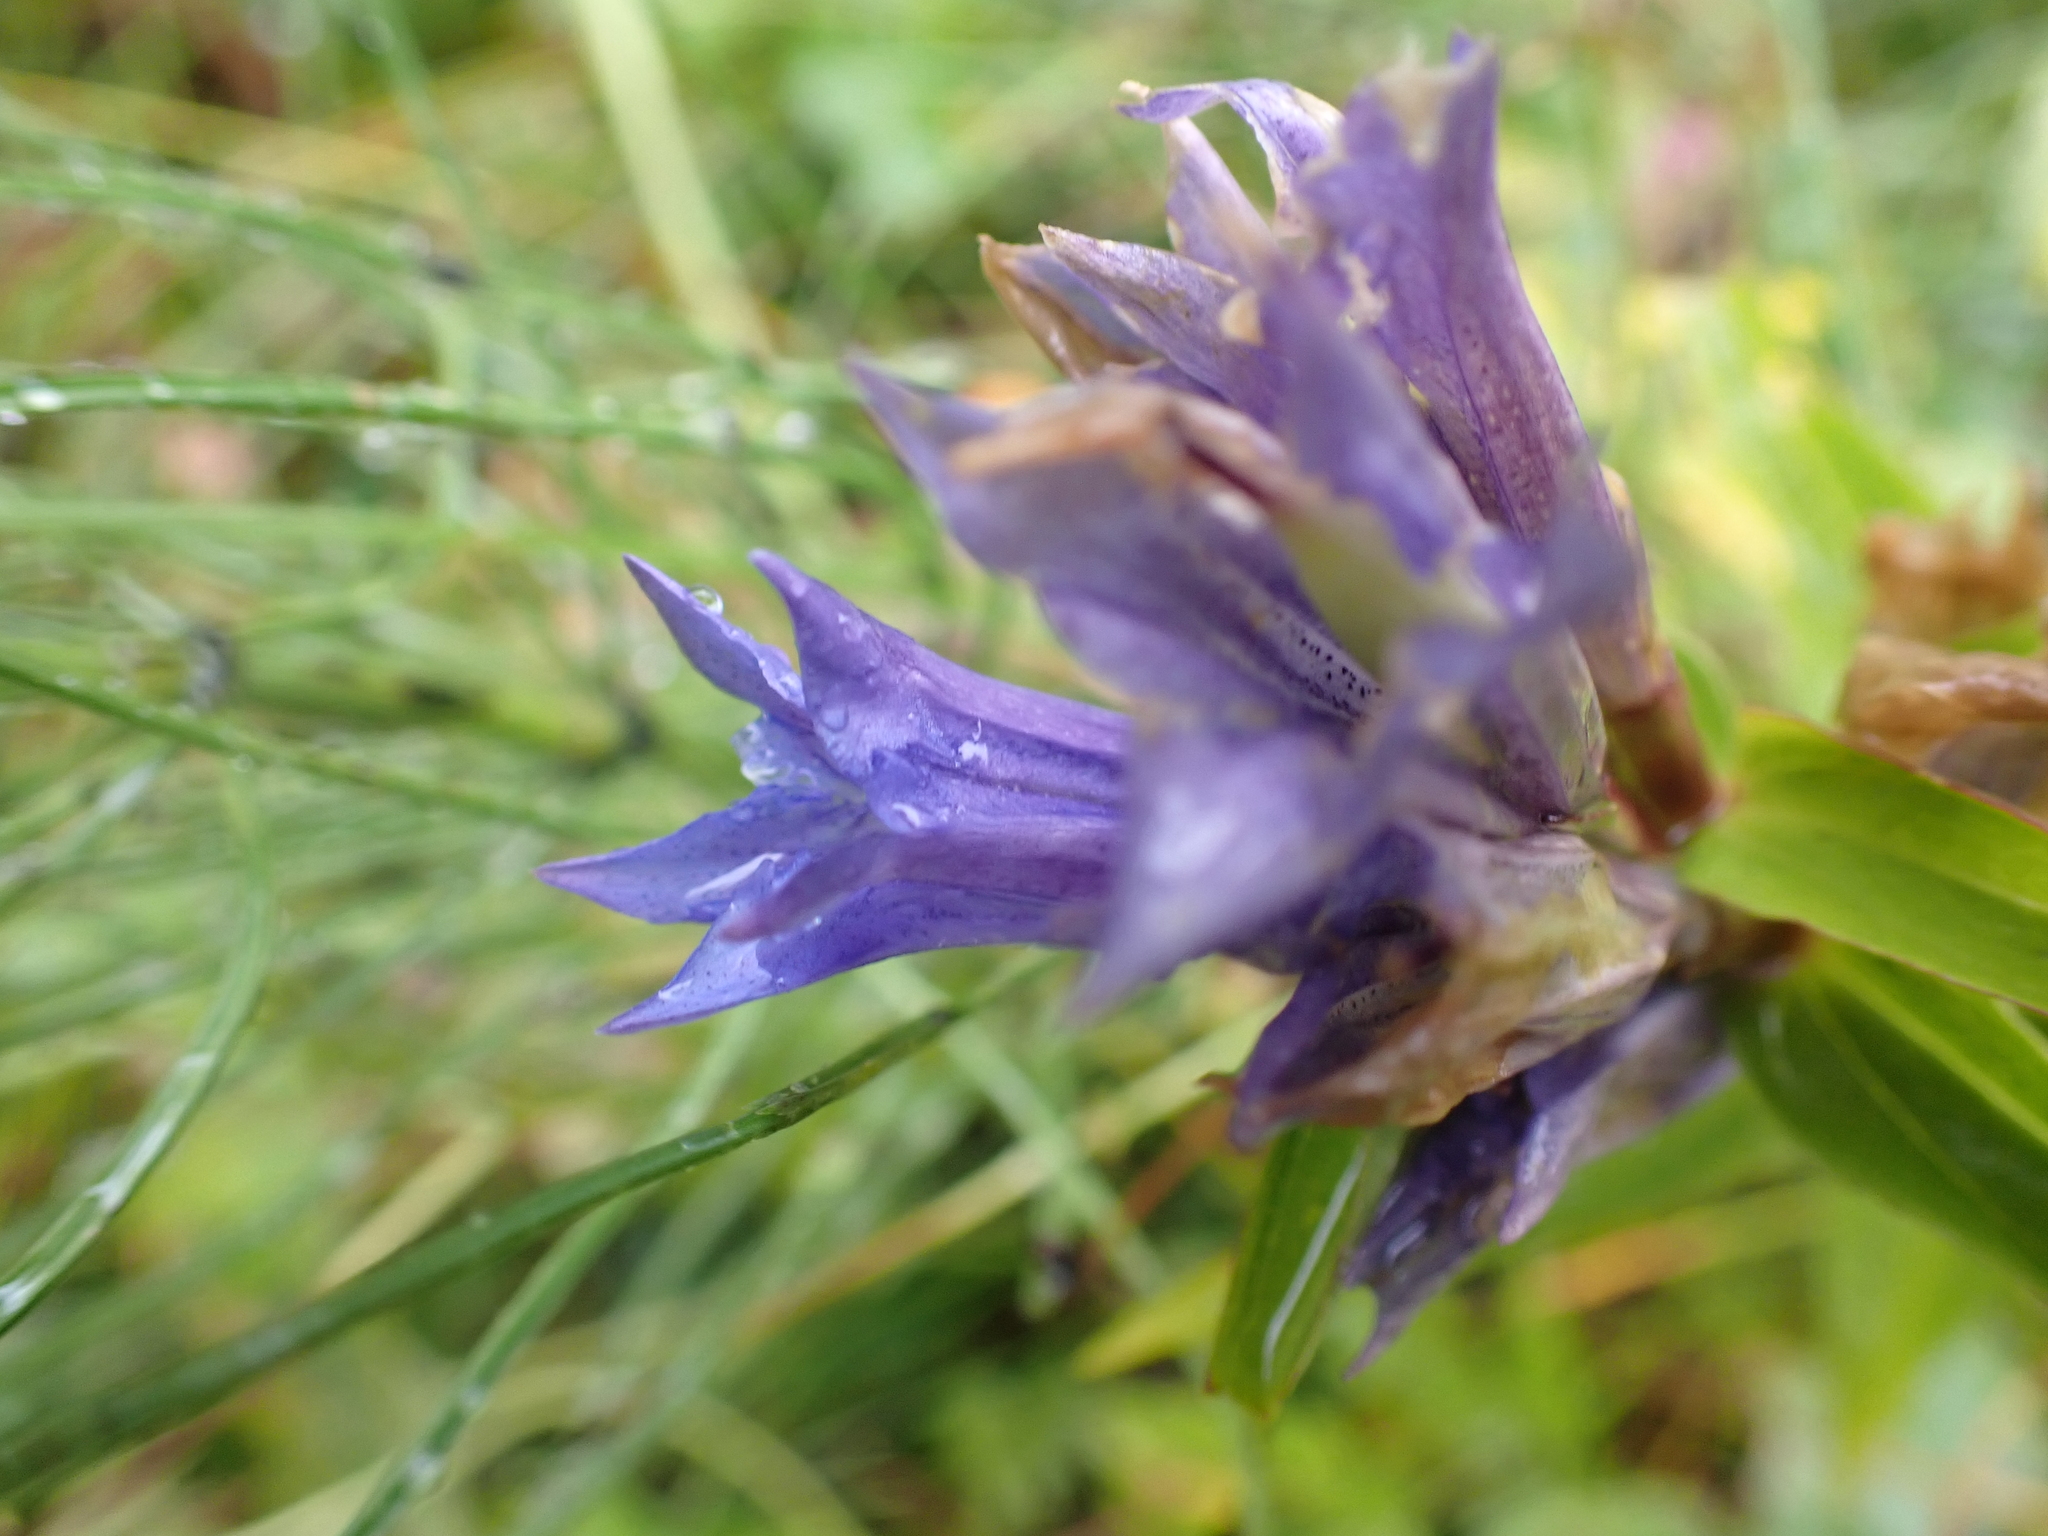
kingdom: Plantae
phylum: Tracheophyta
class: Magnoliopsida
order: Gentianales
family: Gentianaceae
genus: Gentiana
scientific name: Gentiana asclepiadea
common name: Willow gentian
